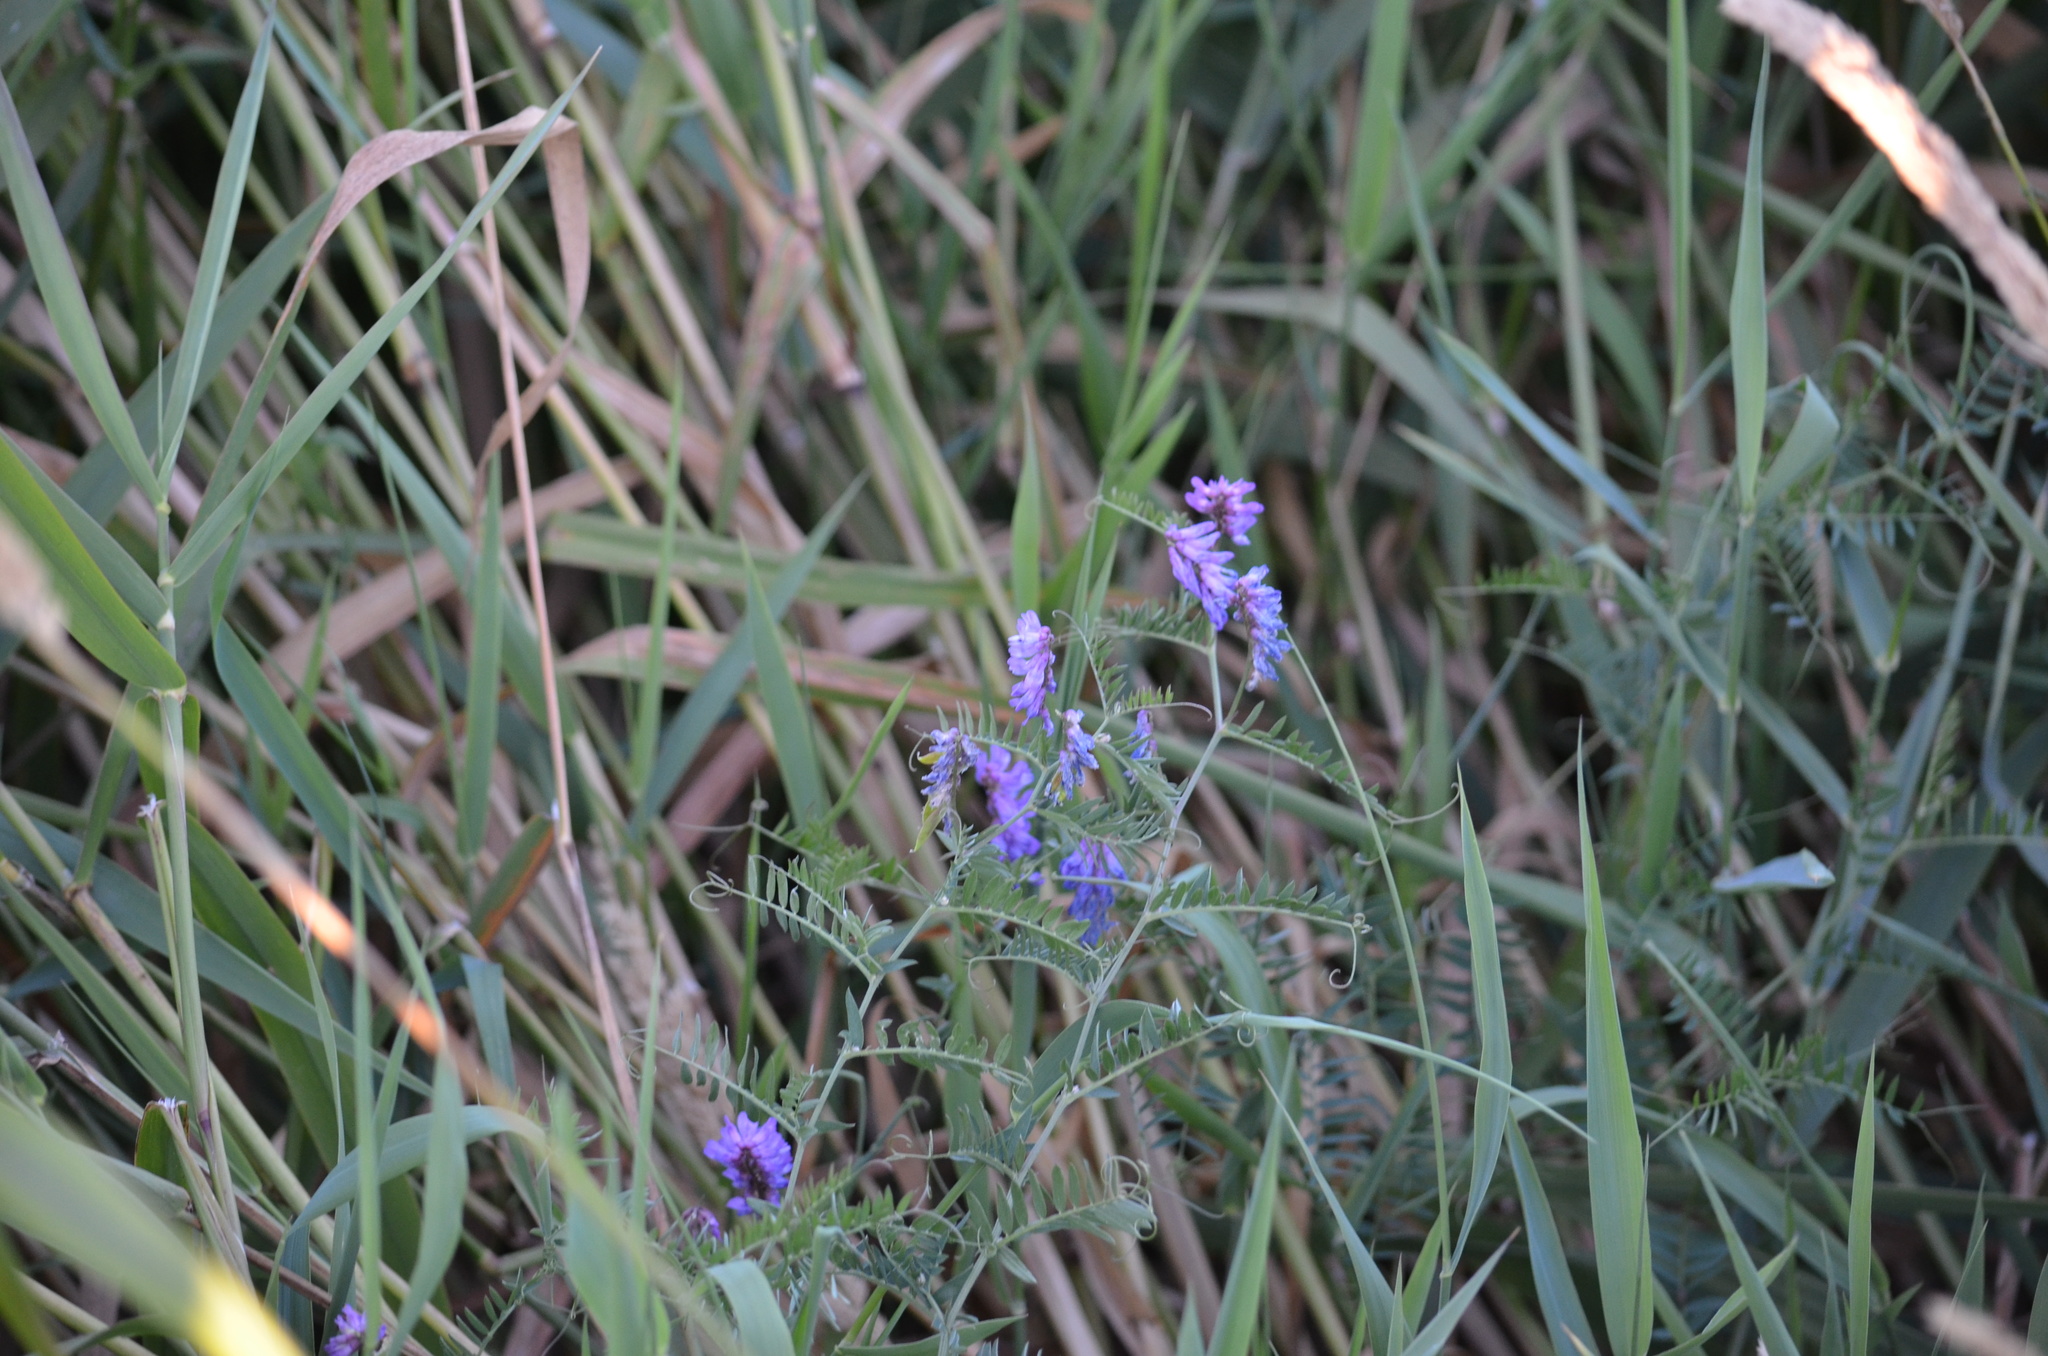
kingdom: Plantae
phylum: Tracheophyta
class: Magnoliopsida
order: Fabales
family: Fabaceae
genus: Vicia
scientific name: Vicia cracca
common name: Bird vetch
